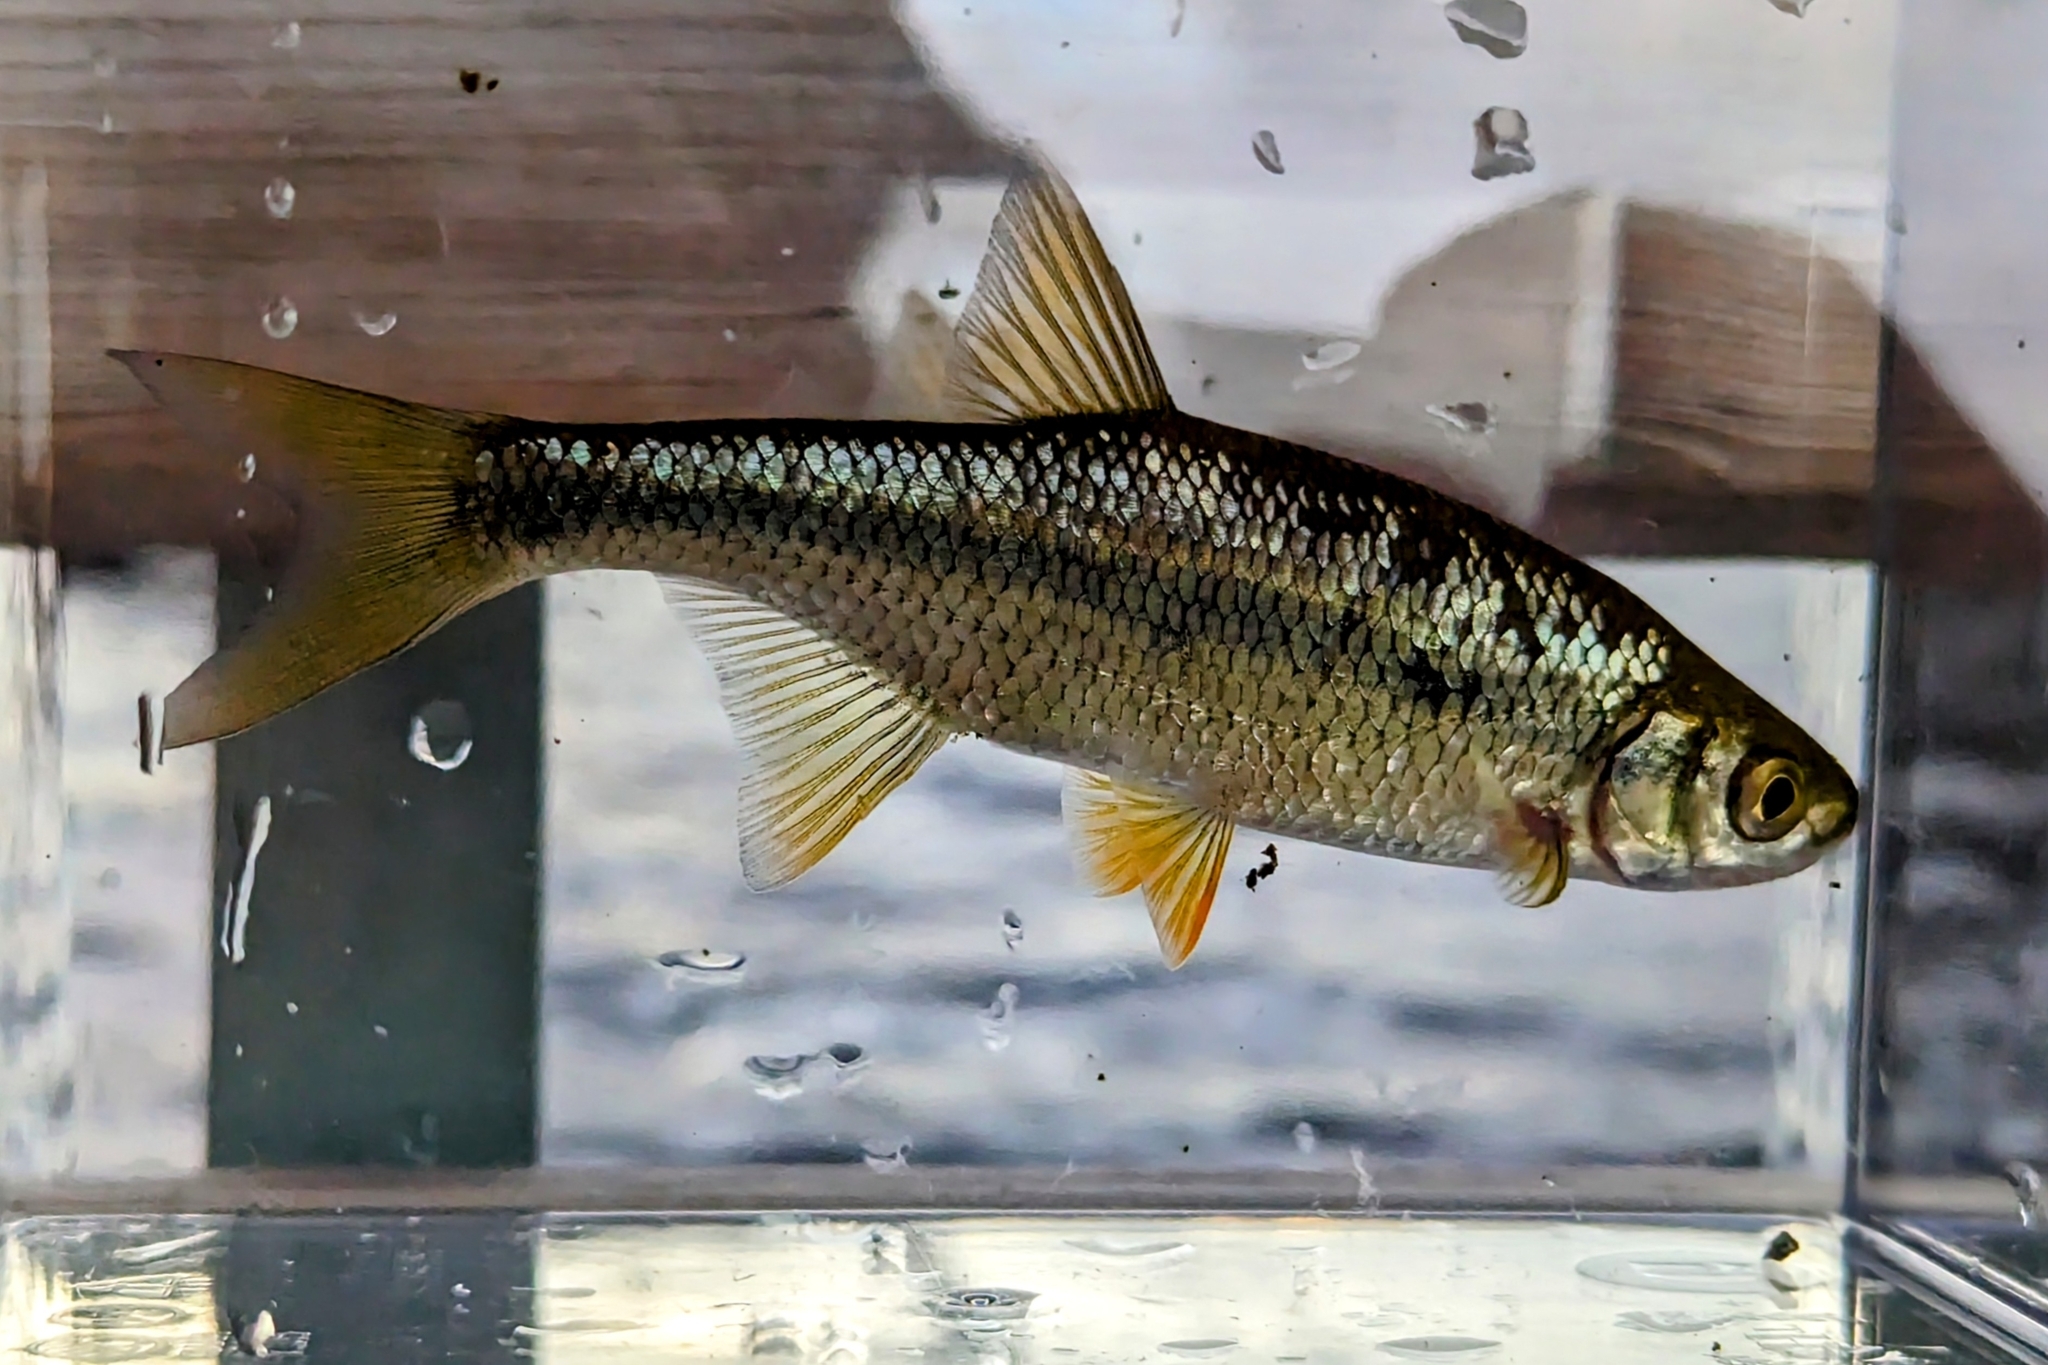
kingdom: Animalia
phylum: Chordata
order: Cypriniformes
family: Cyprinidae
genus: Notemigonus
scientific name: Notemigonus crysoleucas
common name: Golden shiner
